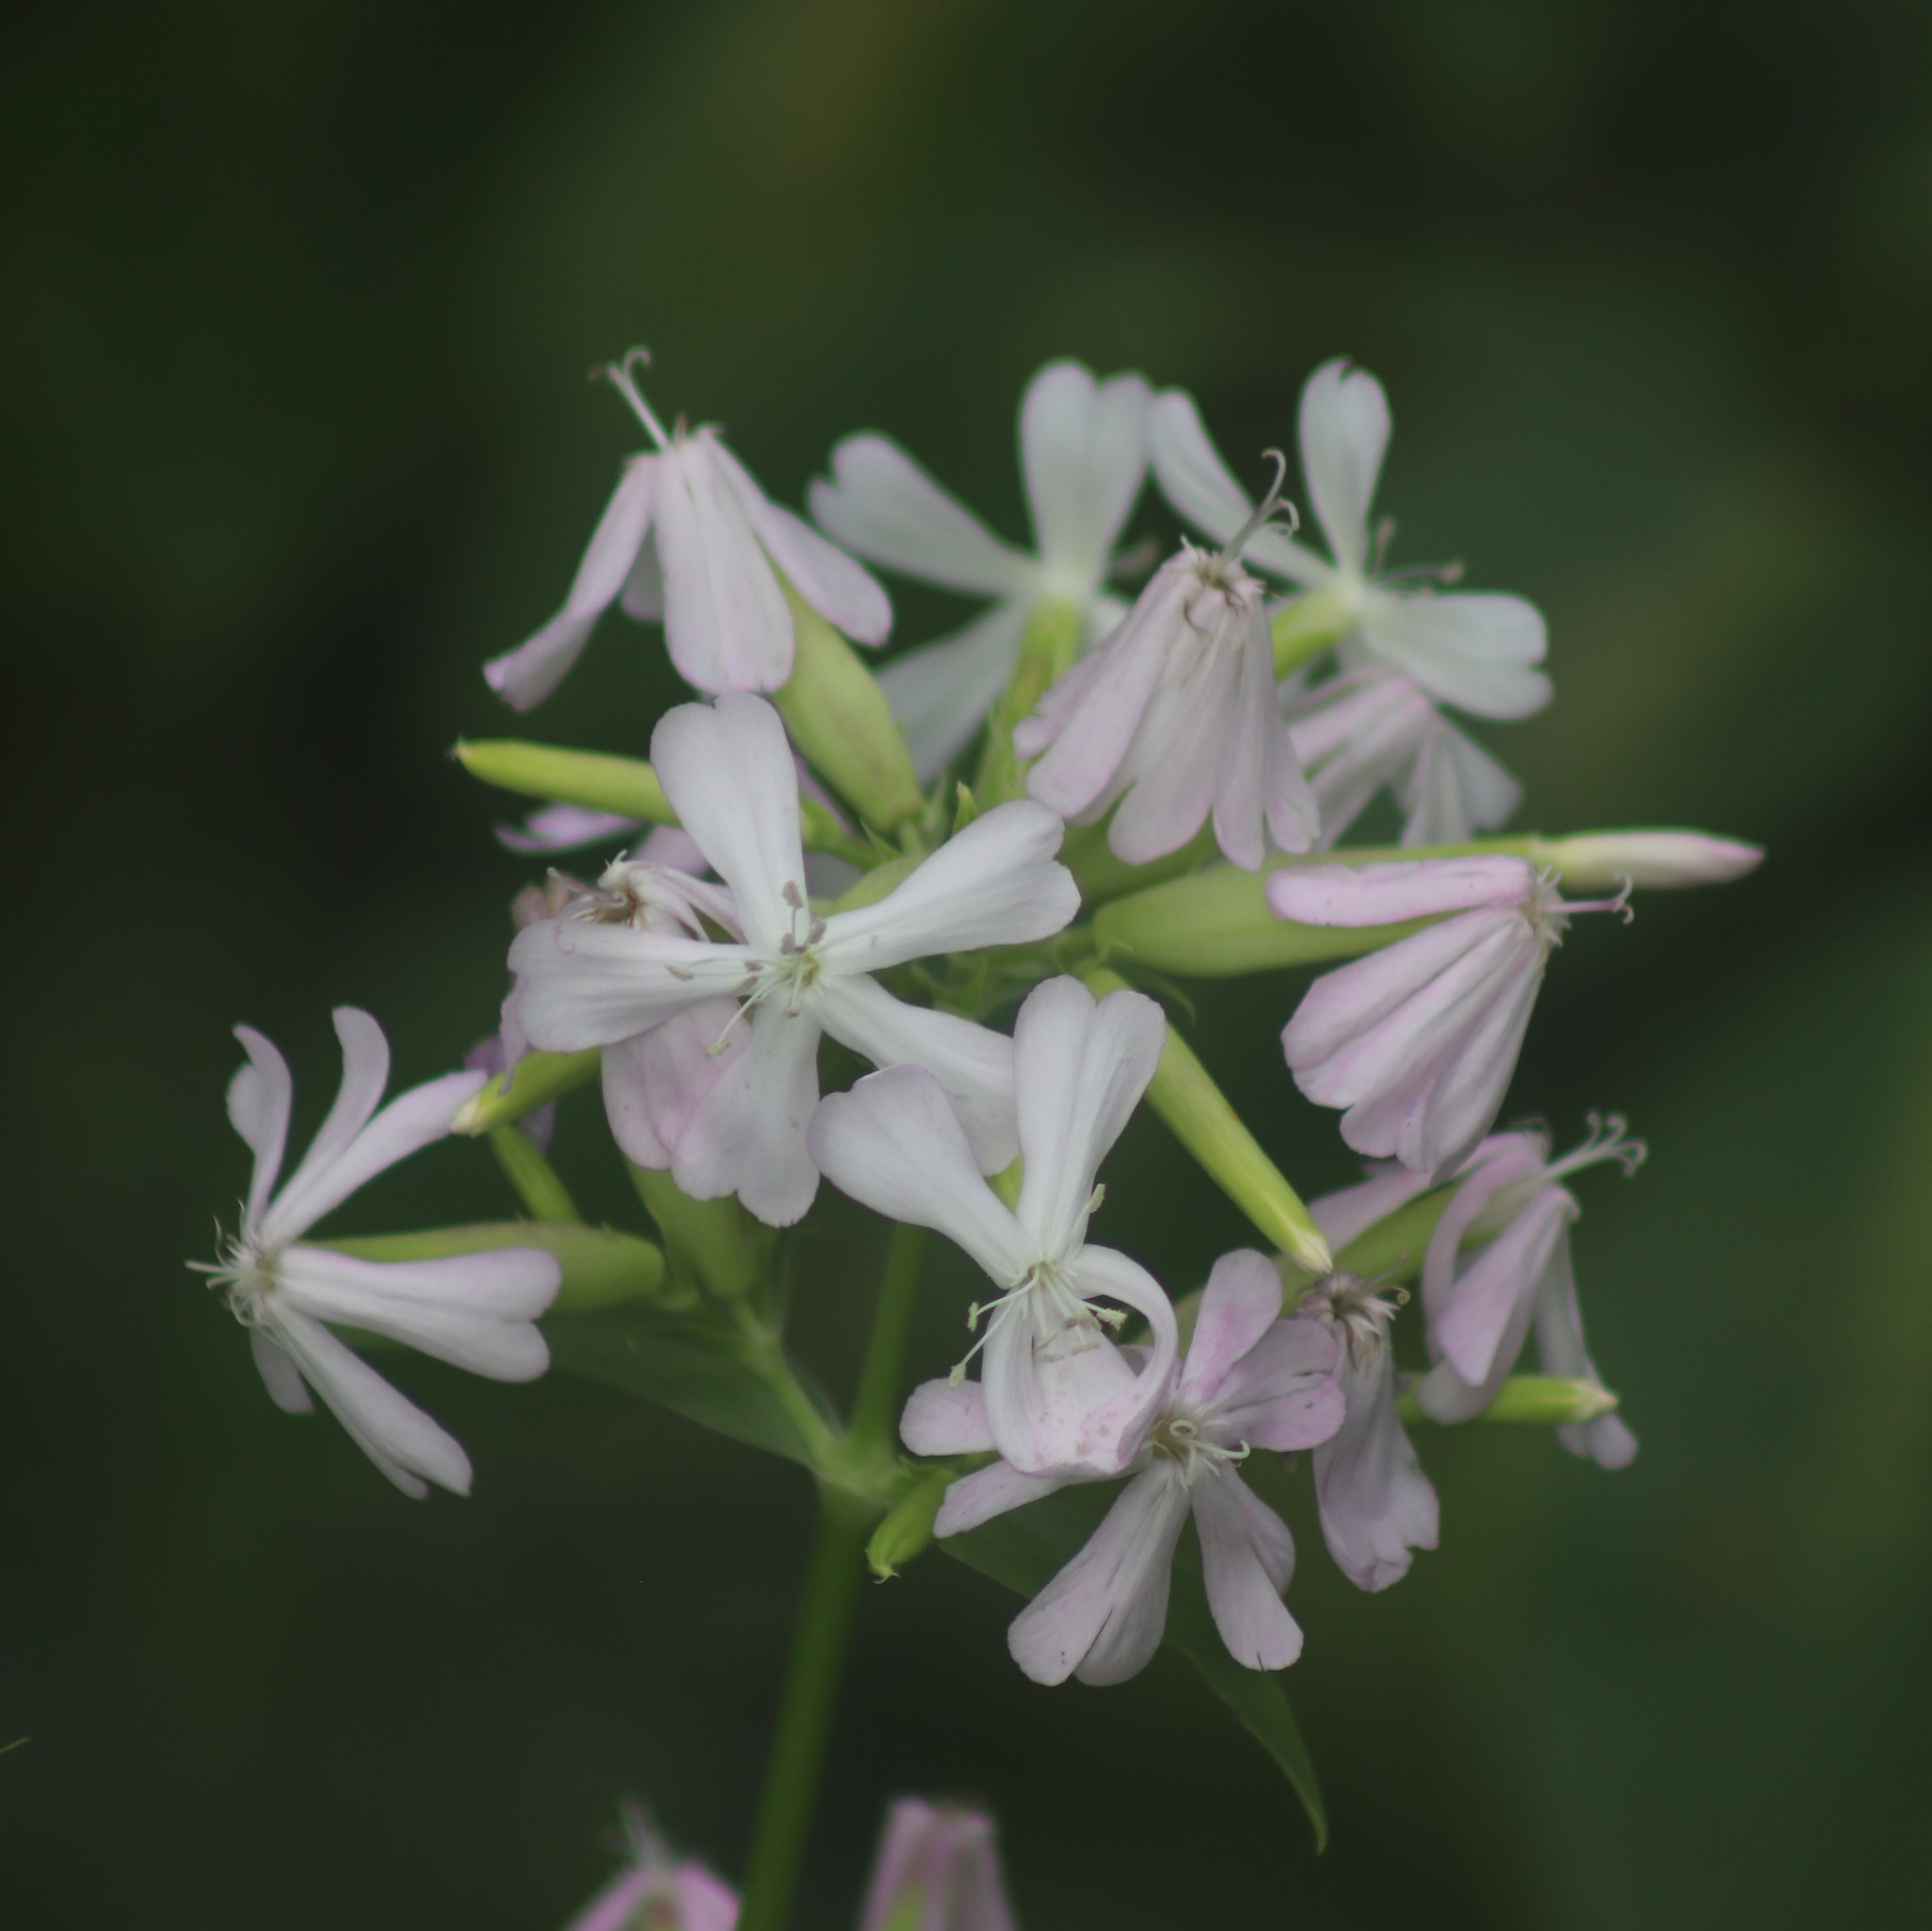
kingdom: Plantae
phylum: Tracheophyta
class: Magnoliopsida
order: Caryophyllales
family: Caryophyllaceae
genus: Saponaria
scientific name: Saponaria officinalis
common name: Soapwort
